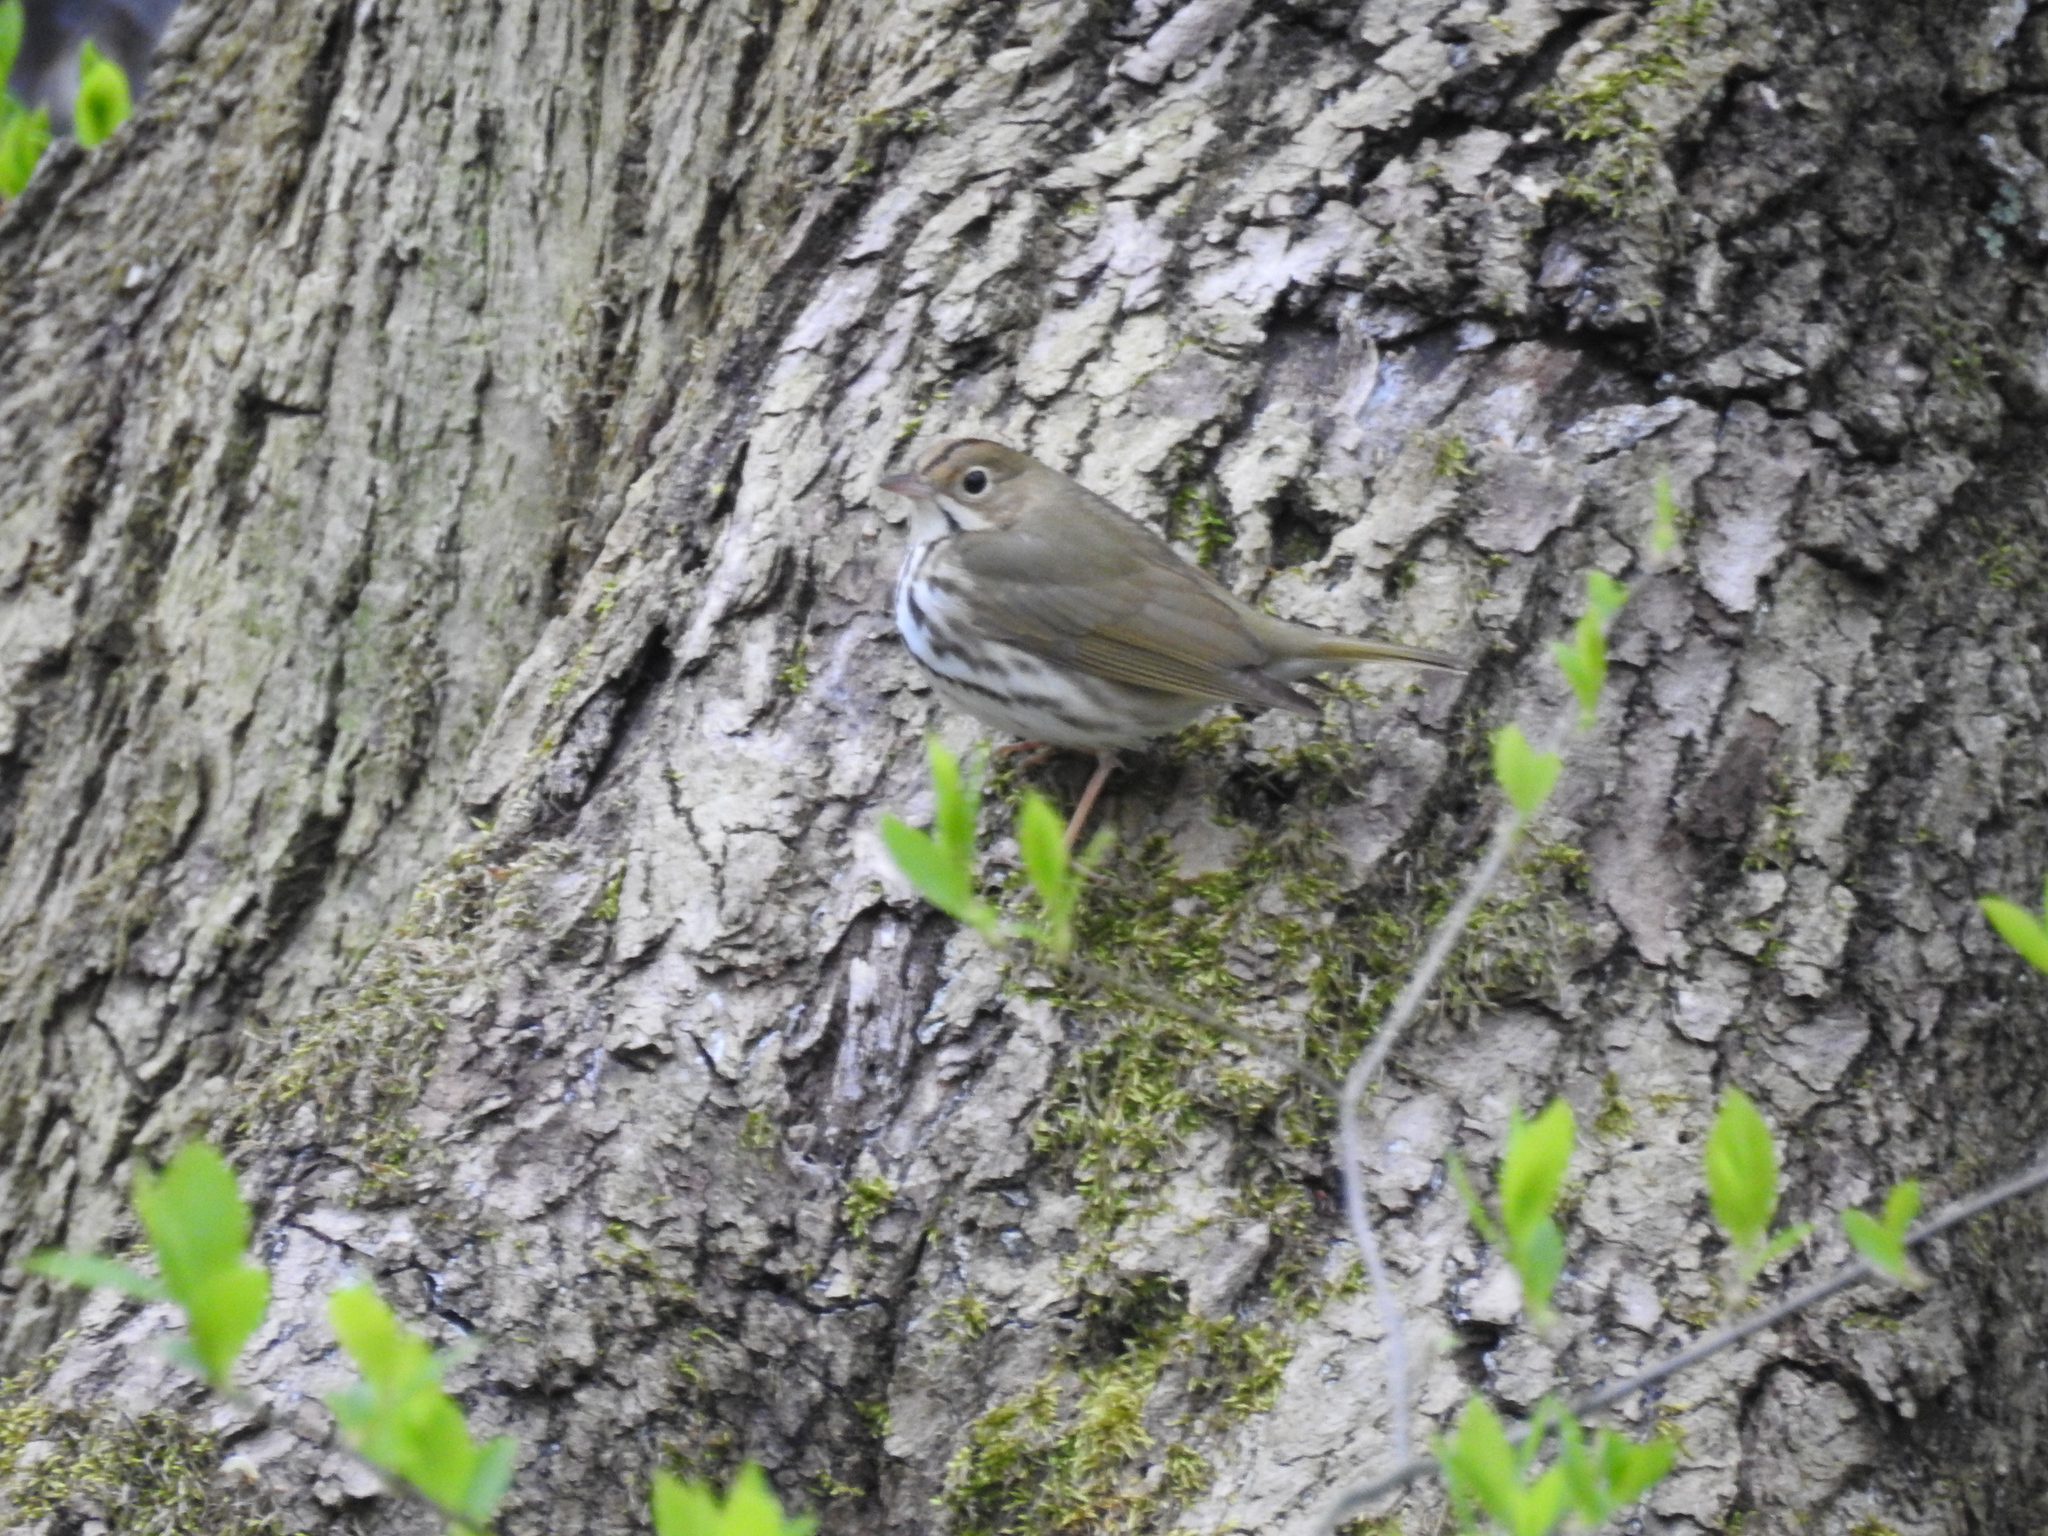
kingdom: Animalia
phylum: Chordata
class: Aves
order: Passeriformes
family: Parulidae
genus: Seiurus
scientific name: Seiurus aurocapilla
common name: Ovenbird
